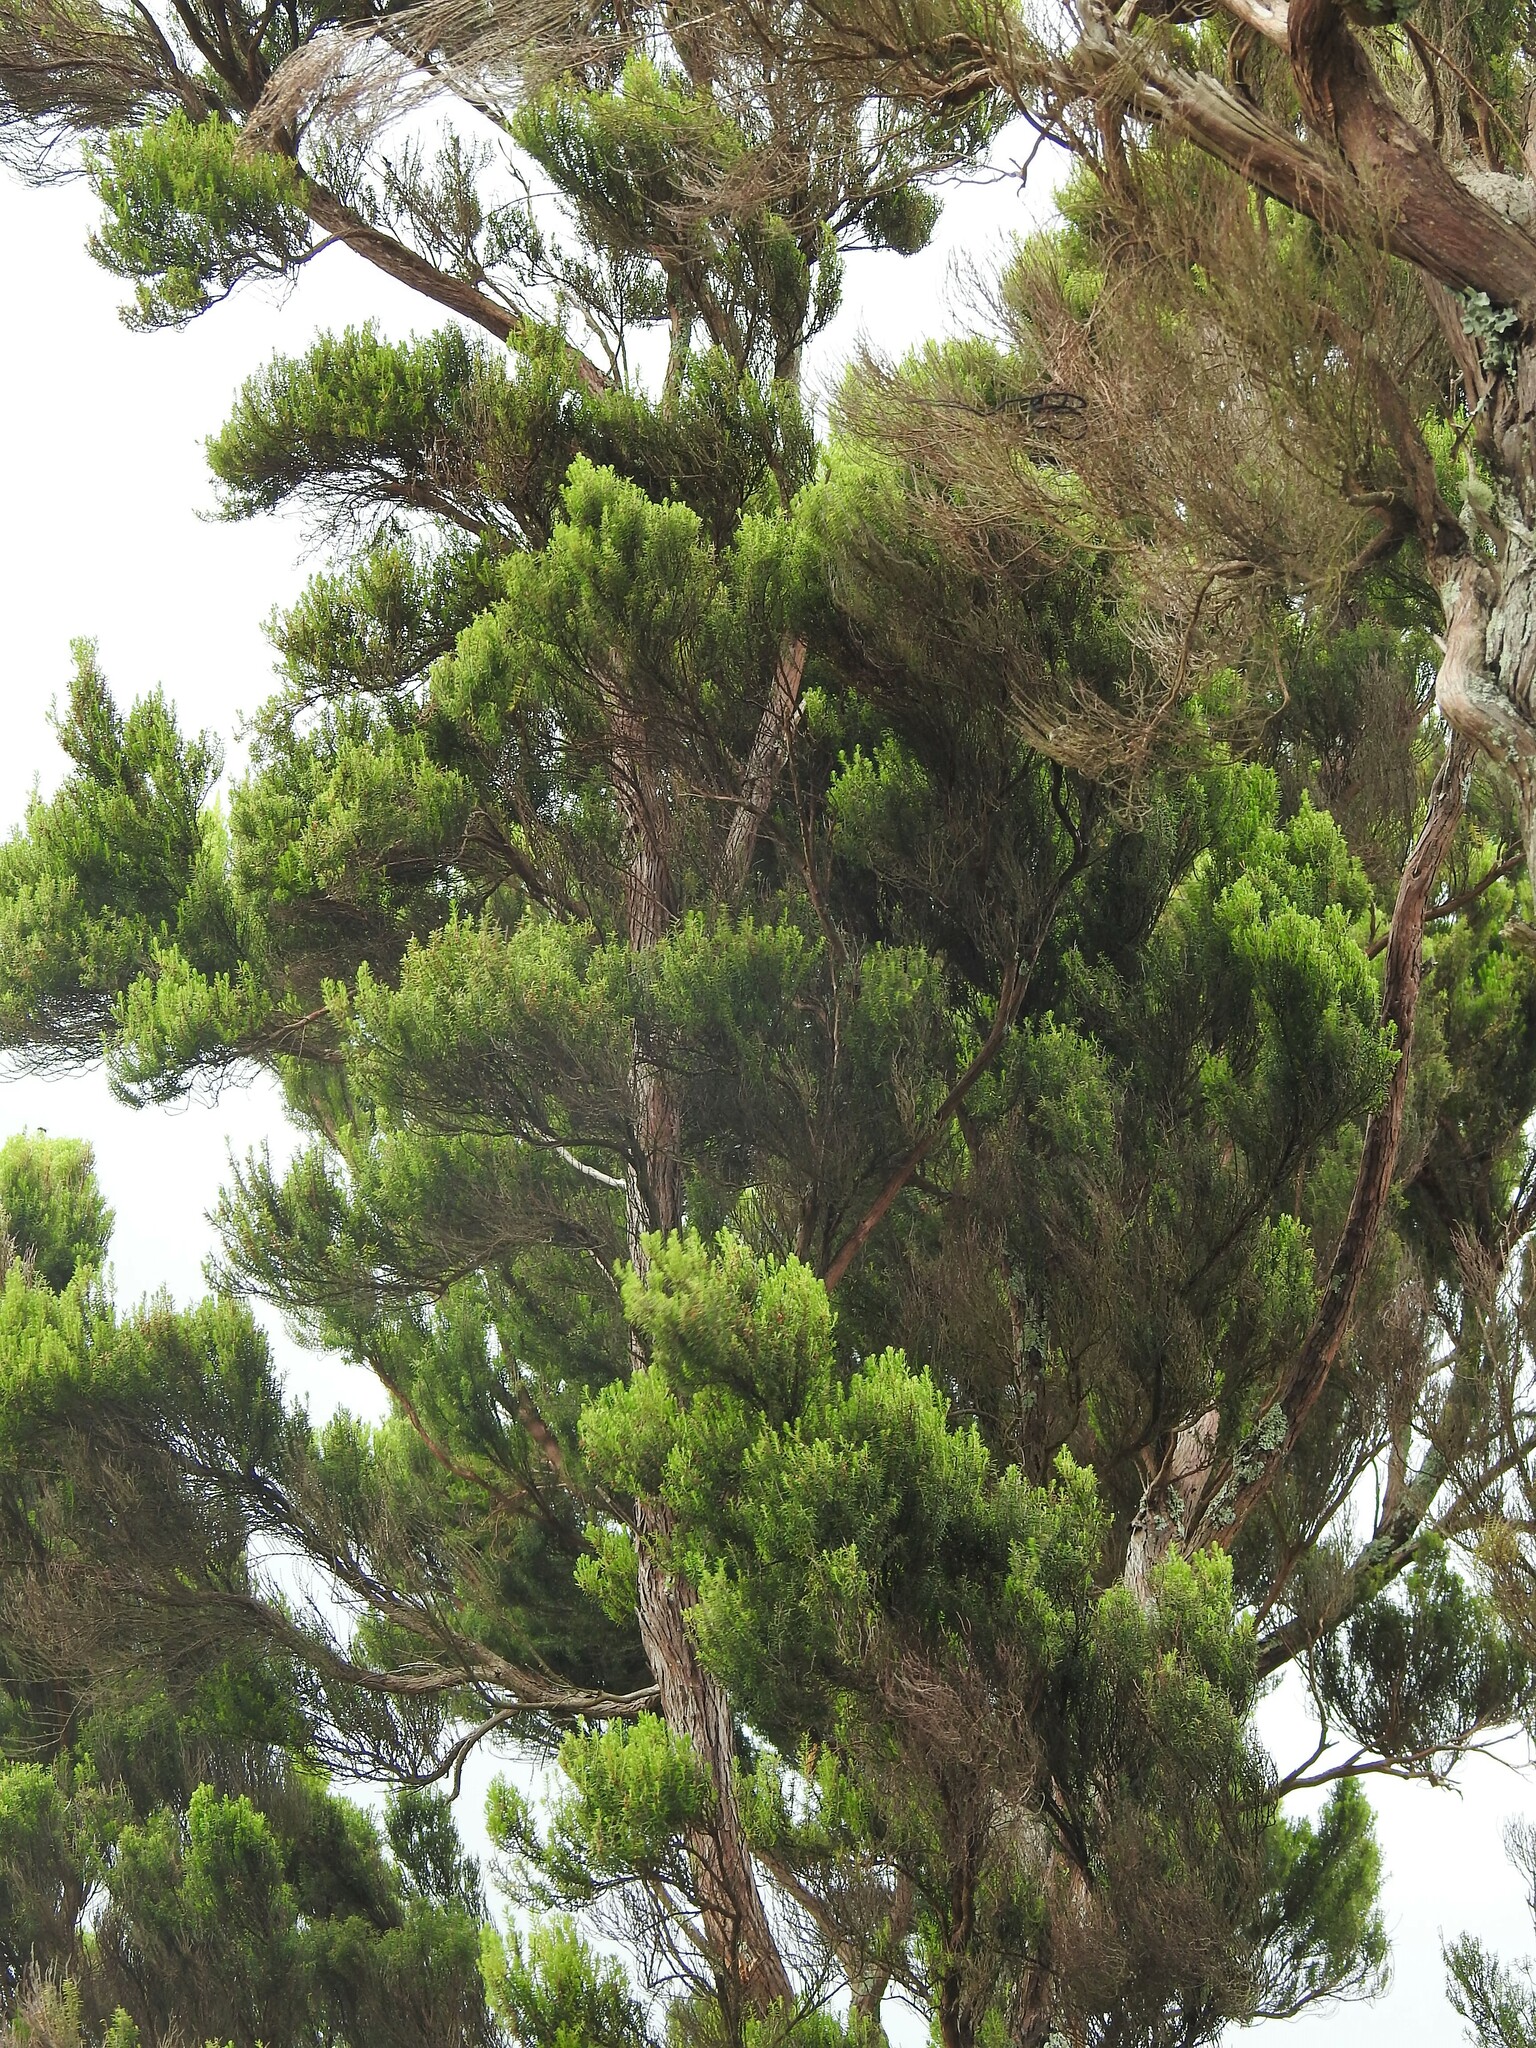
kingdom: Plantae
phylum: Tracheophyta
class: Magnoliopsida
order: Ericales
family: Ericaceae
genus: Erica
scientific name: Erica azorica
